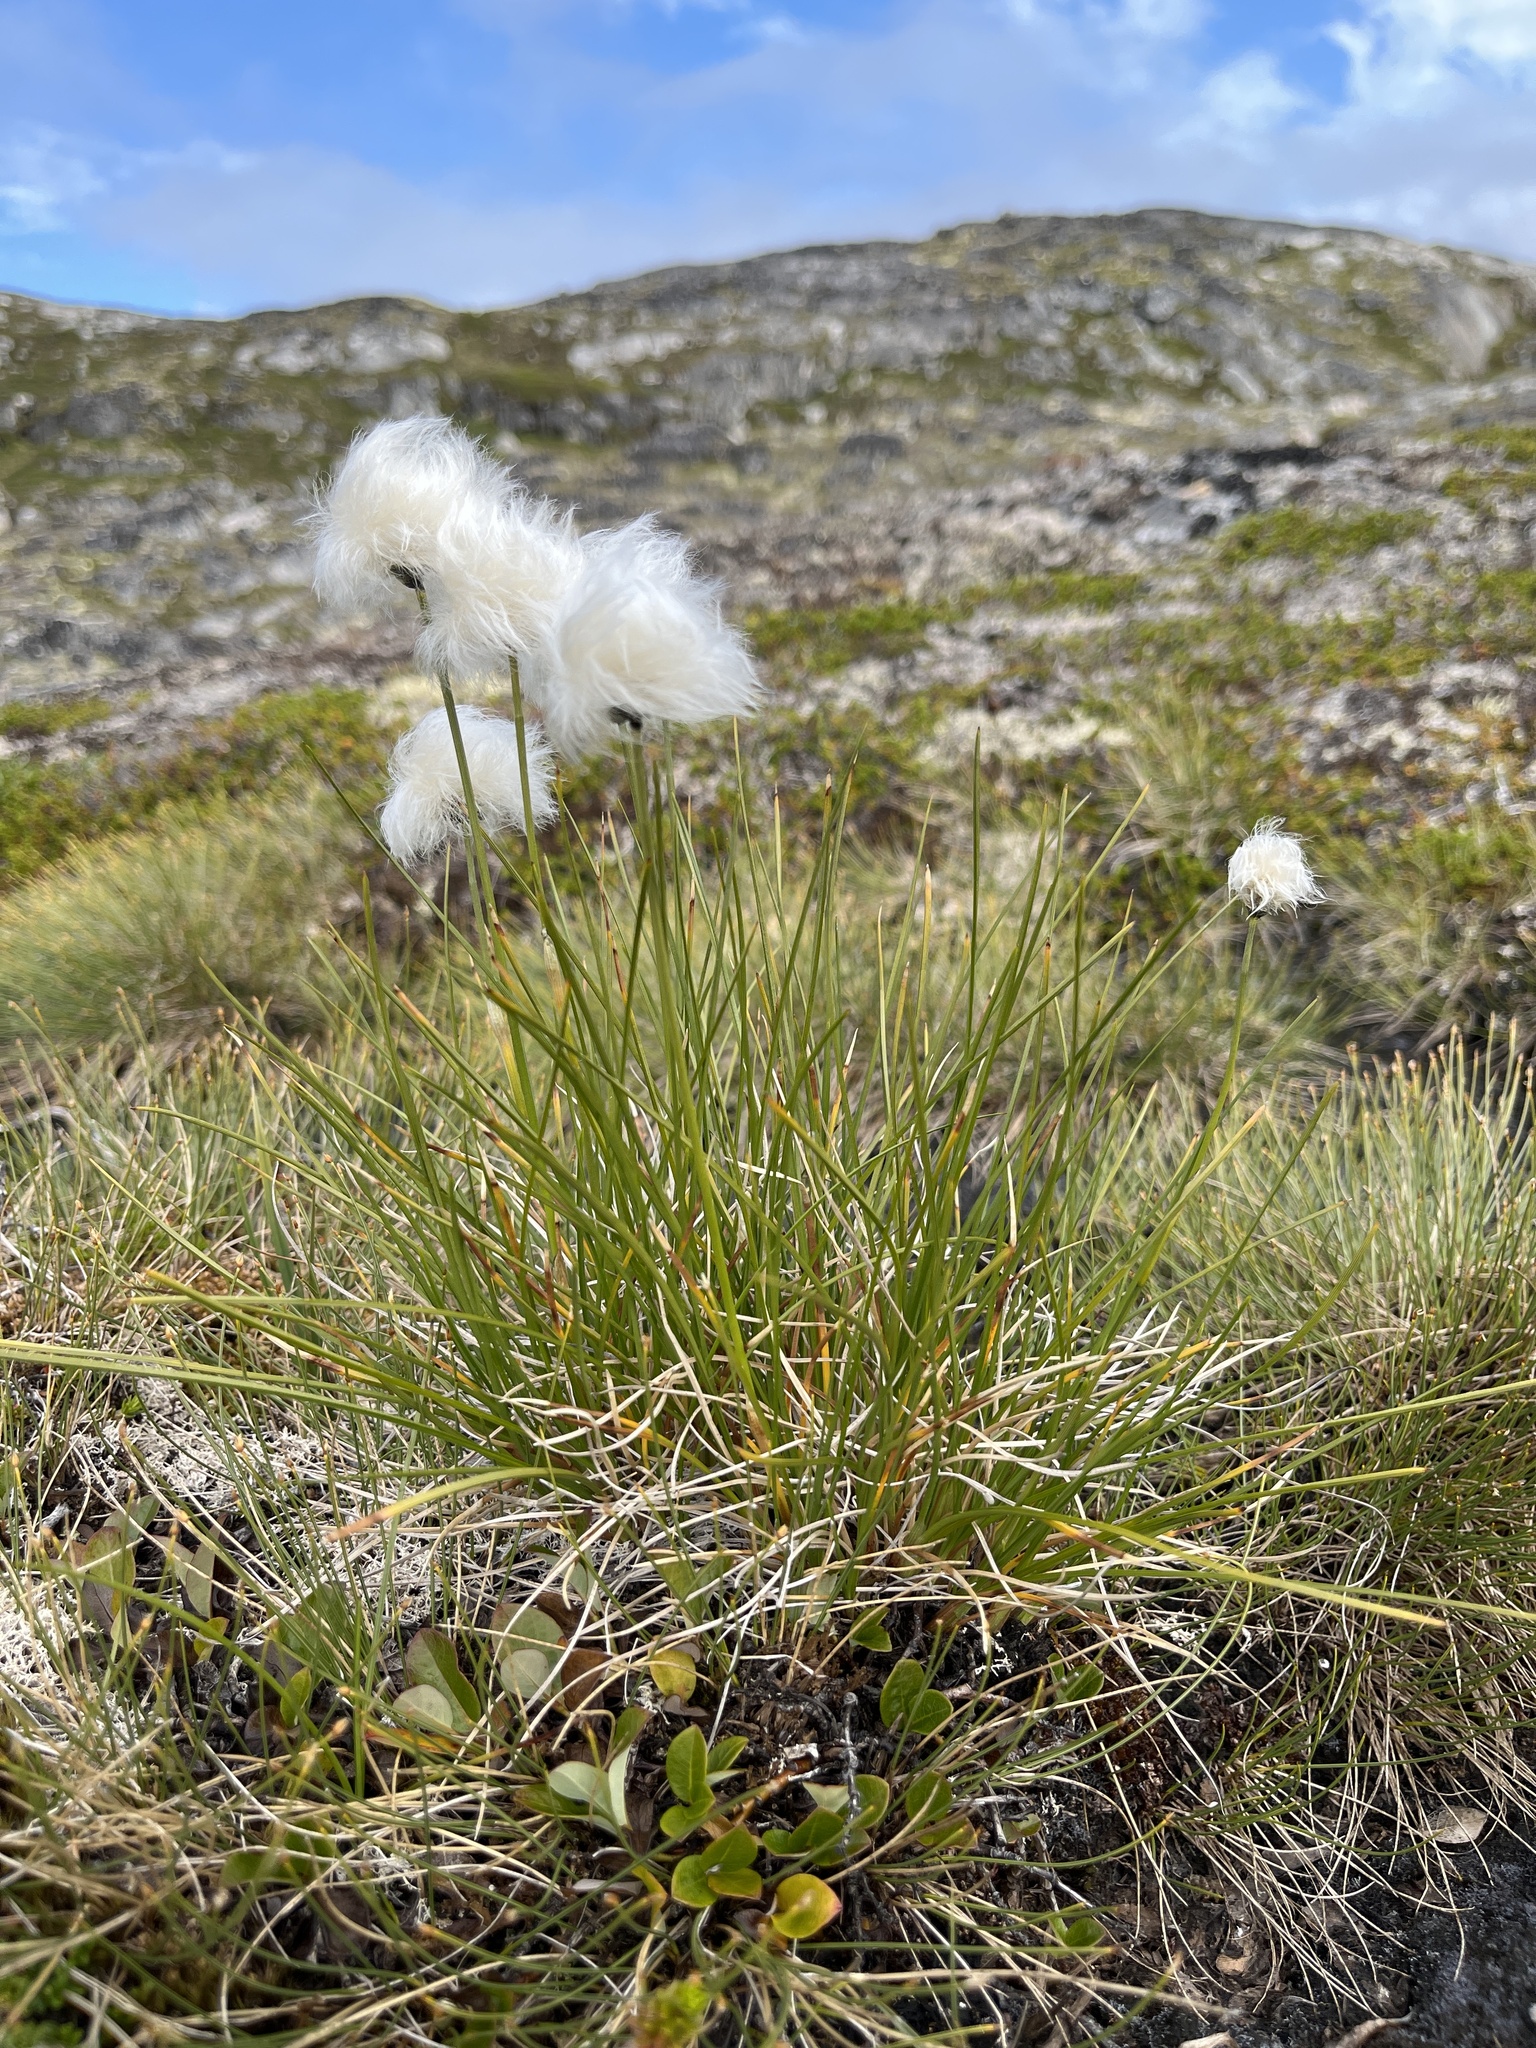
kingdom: Plantae
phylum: Tracheophyta
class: Liliopsida
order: Poales
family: Cyperaceae
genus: Eriophorum
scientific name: Eriophorum vaginatum
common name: Hare's-tail cottongrass
